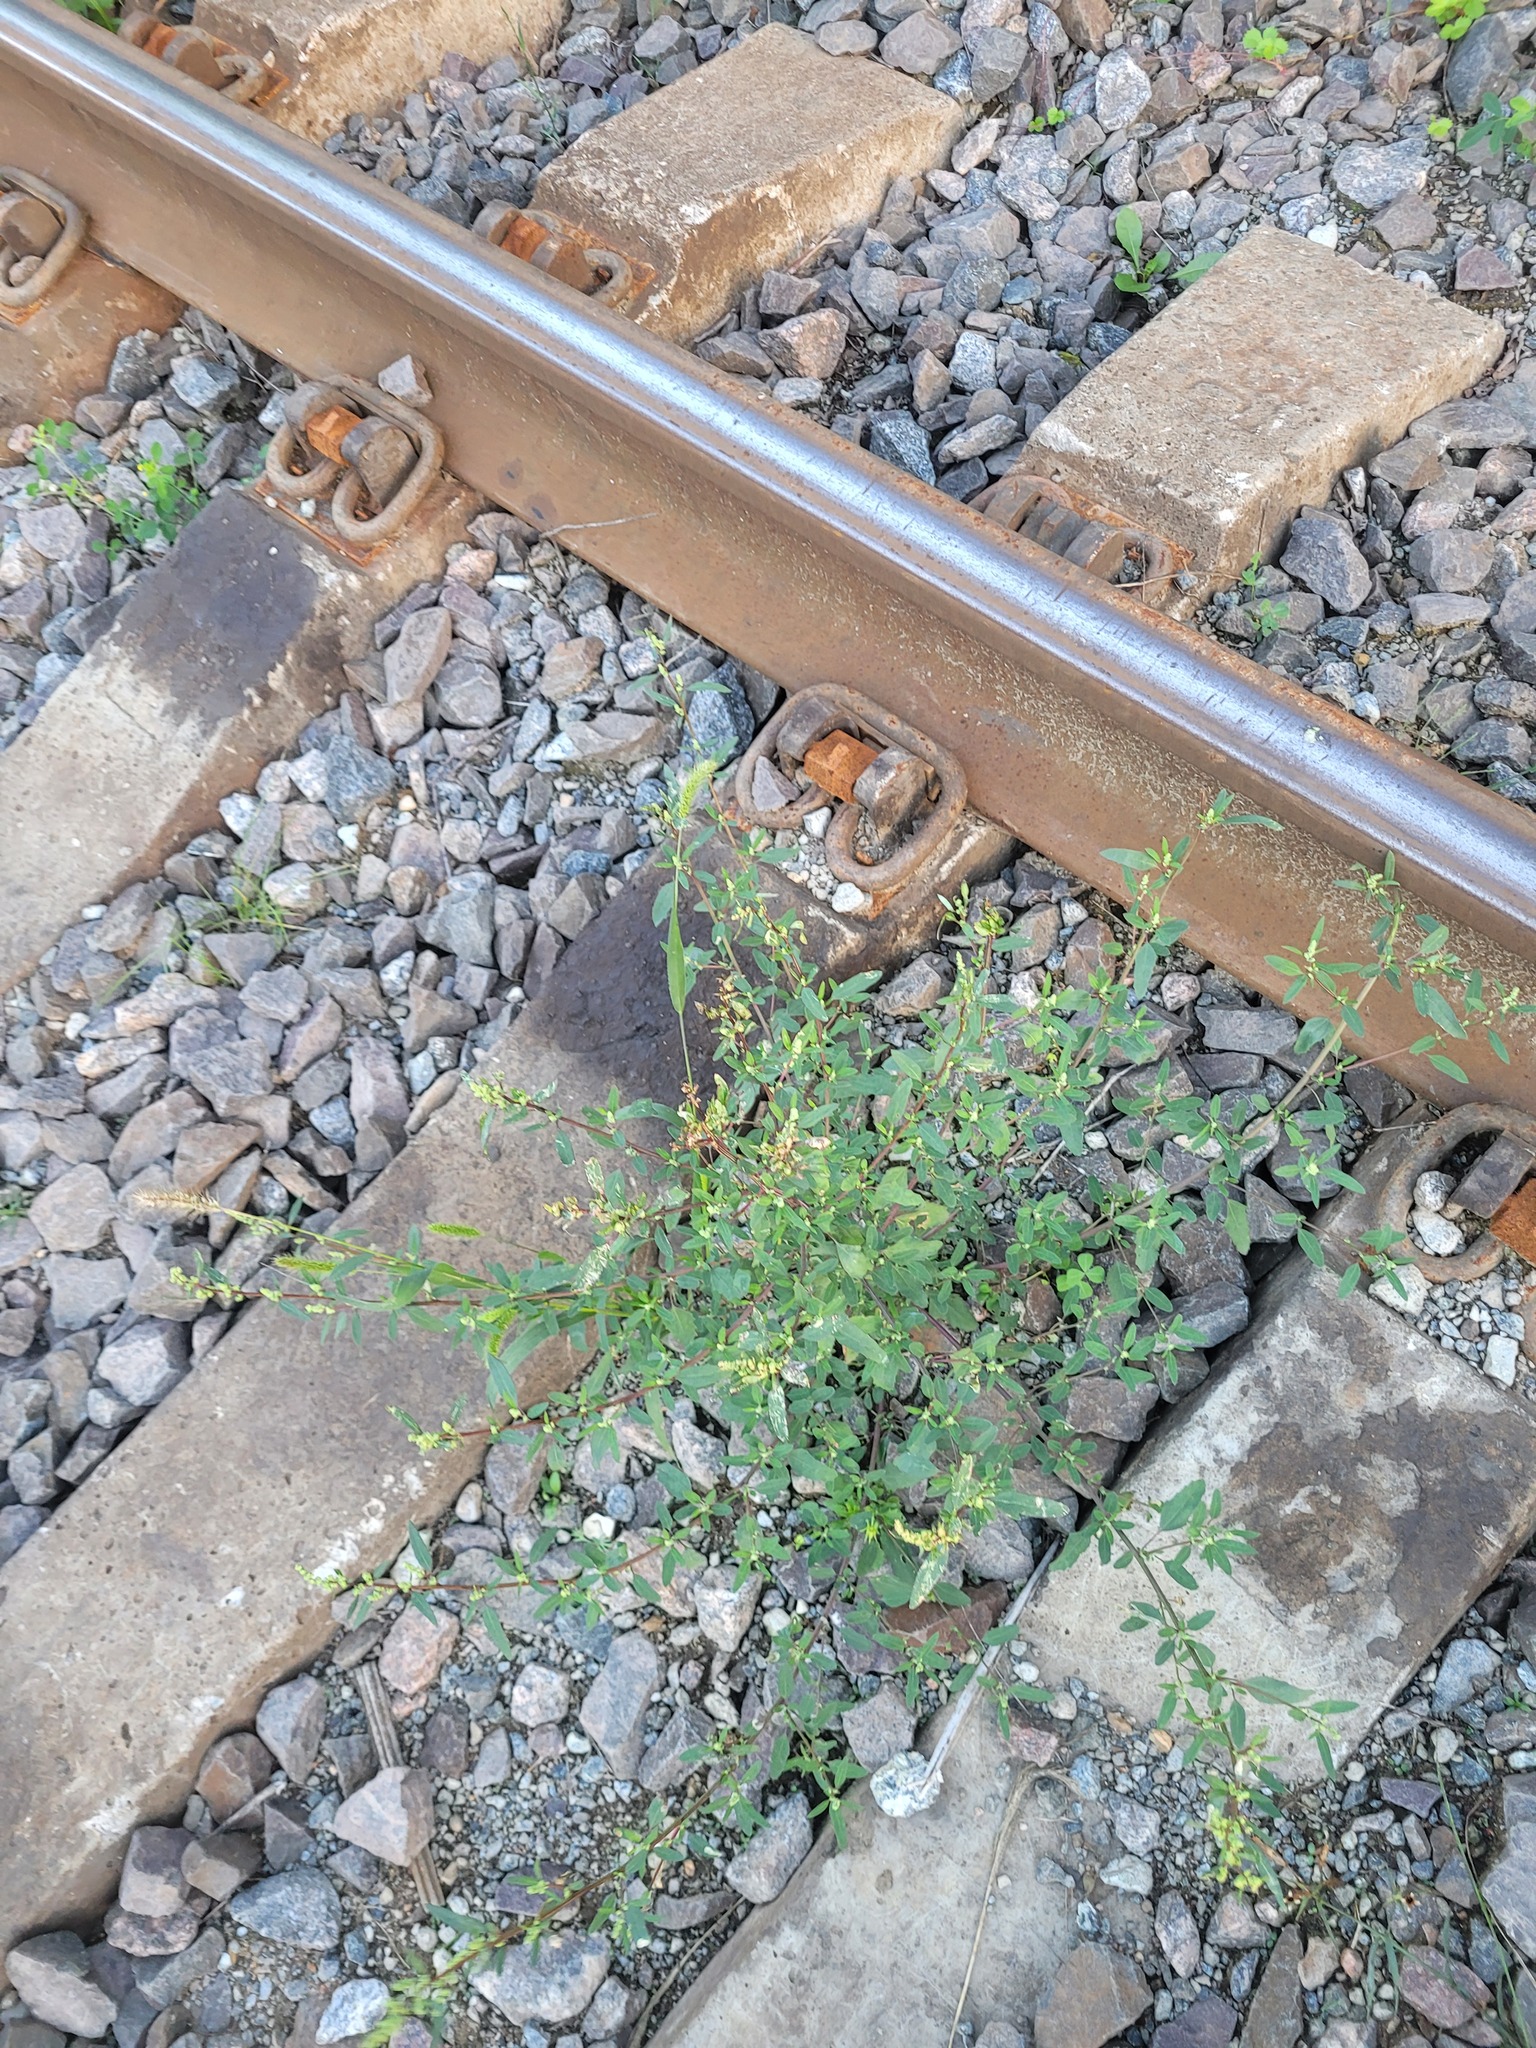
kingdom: Plantae
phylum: Tracheophyta
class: Magnoliopsida
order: Caryophyllales
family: Amaranthaceae
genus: Chenopodium
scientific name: Chenopodium betaceum
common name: Striped goosefoot
